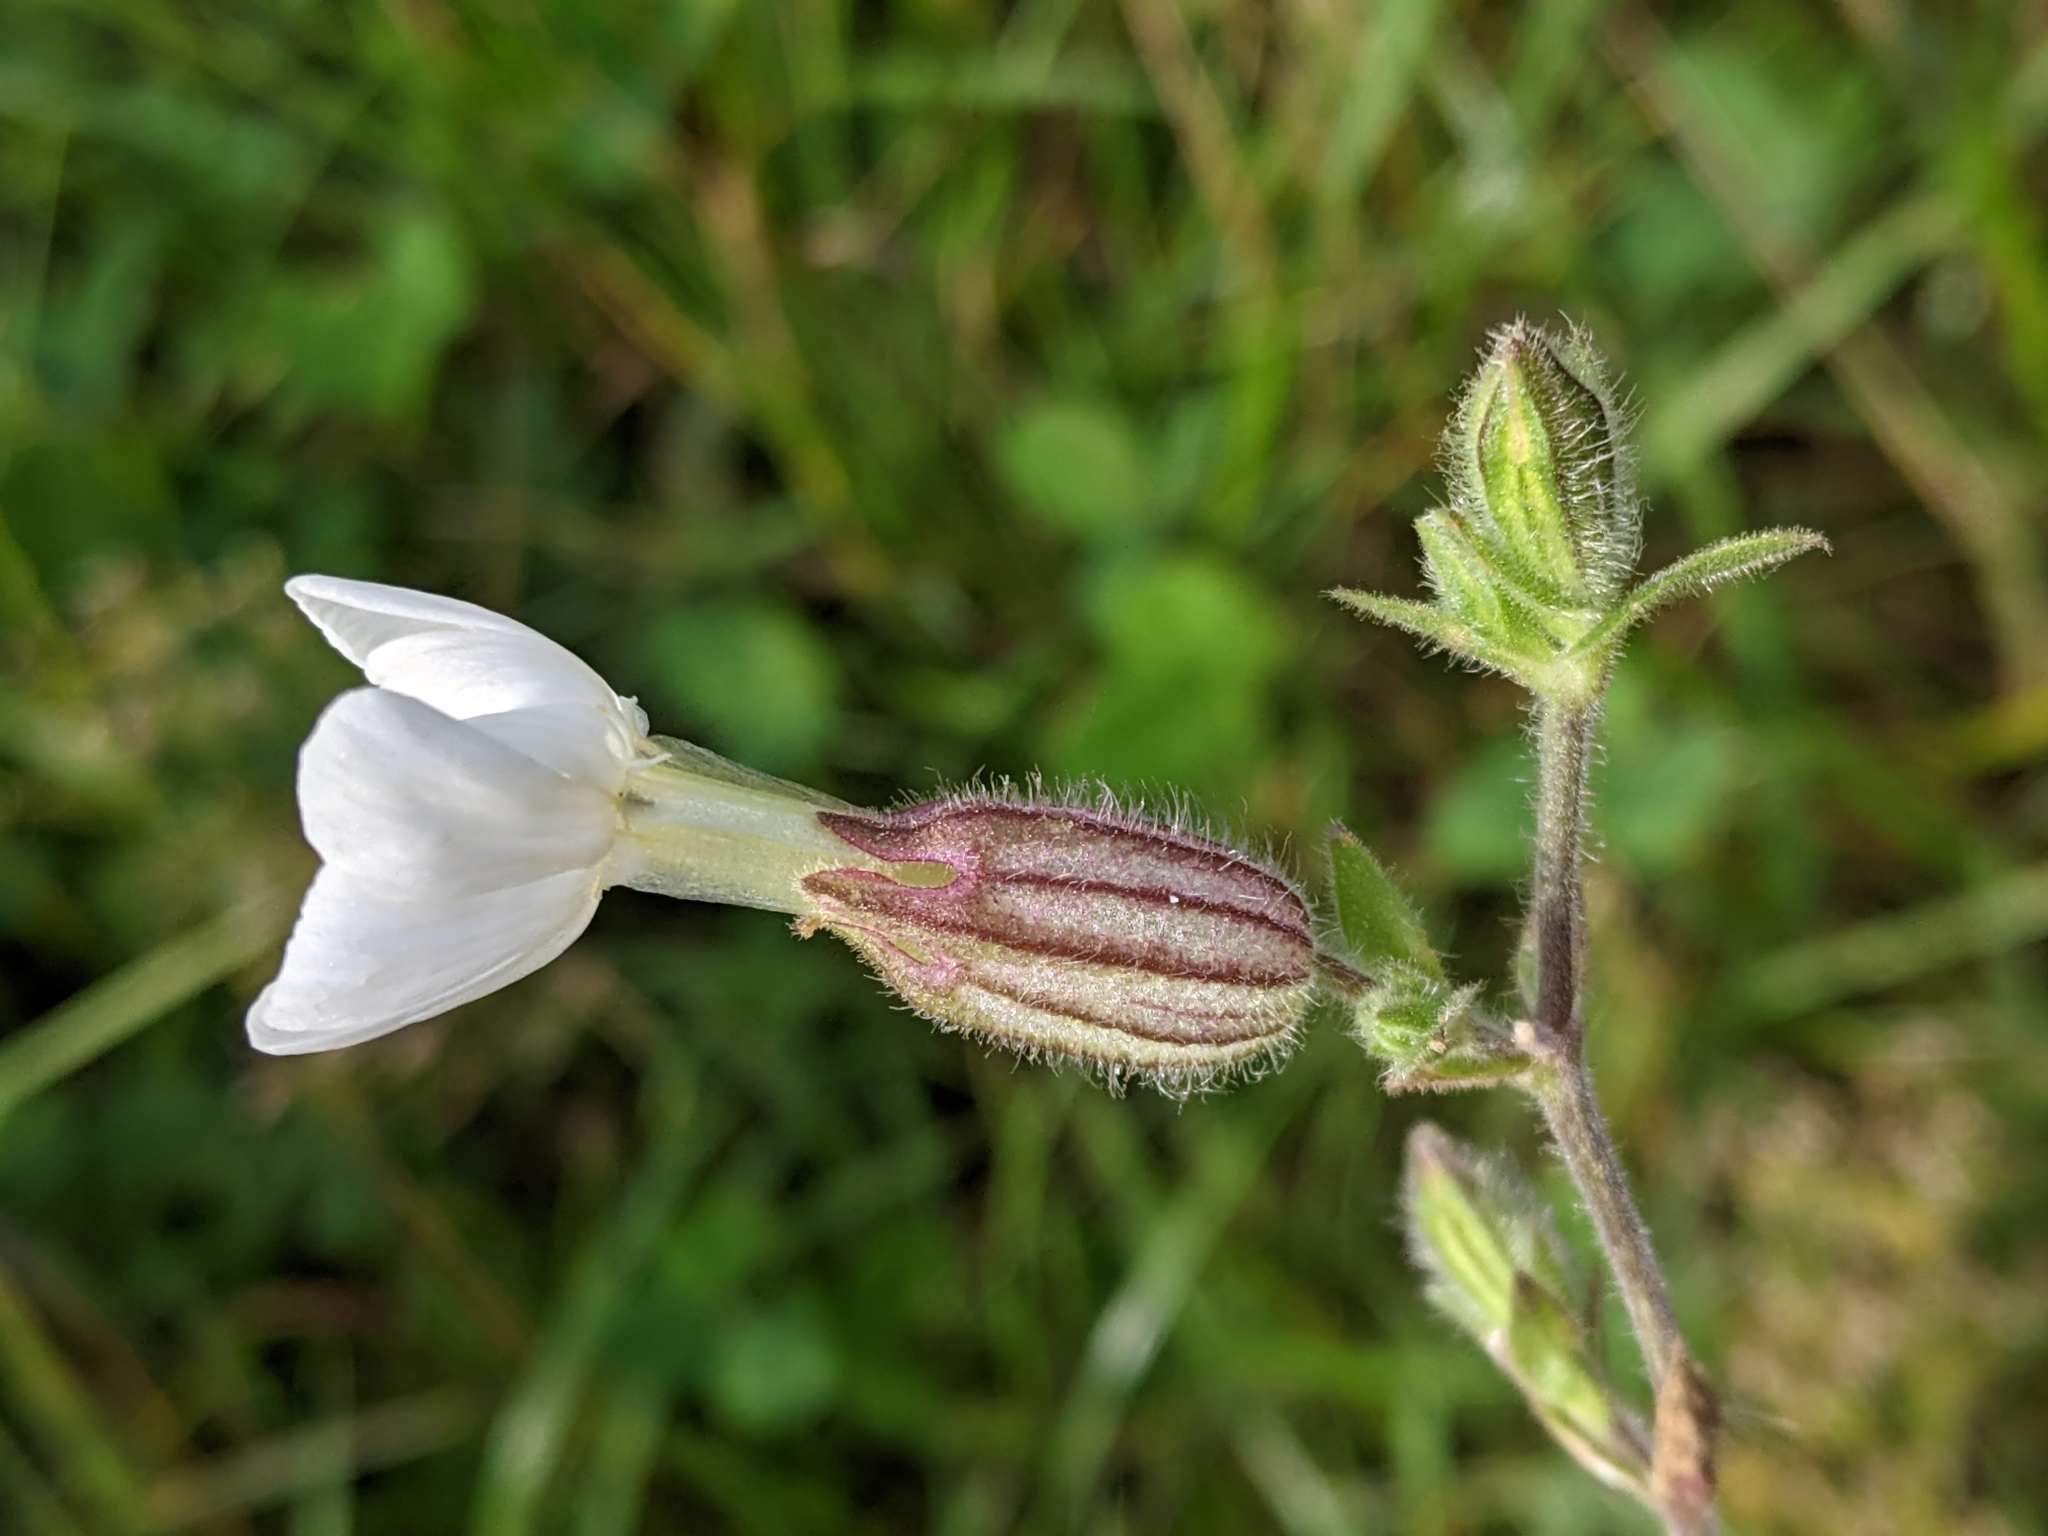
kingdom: Plantae
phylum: Tracheophyta
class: Magnoliopsida
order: Caryophyllales
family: Caryophyllaceae
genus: Silene
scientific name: Silene latifolia
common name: White campion
